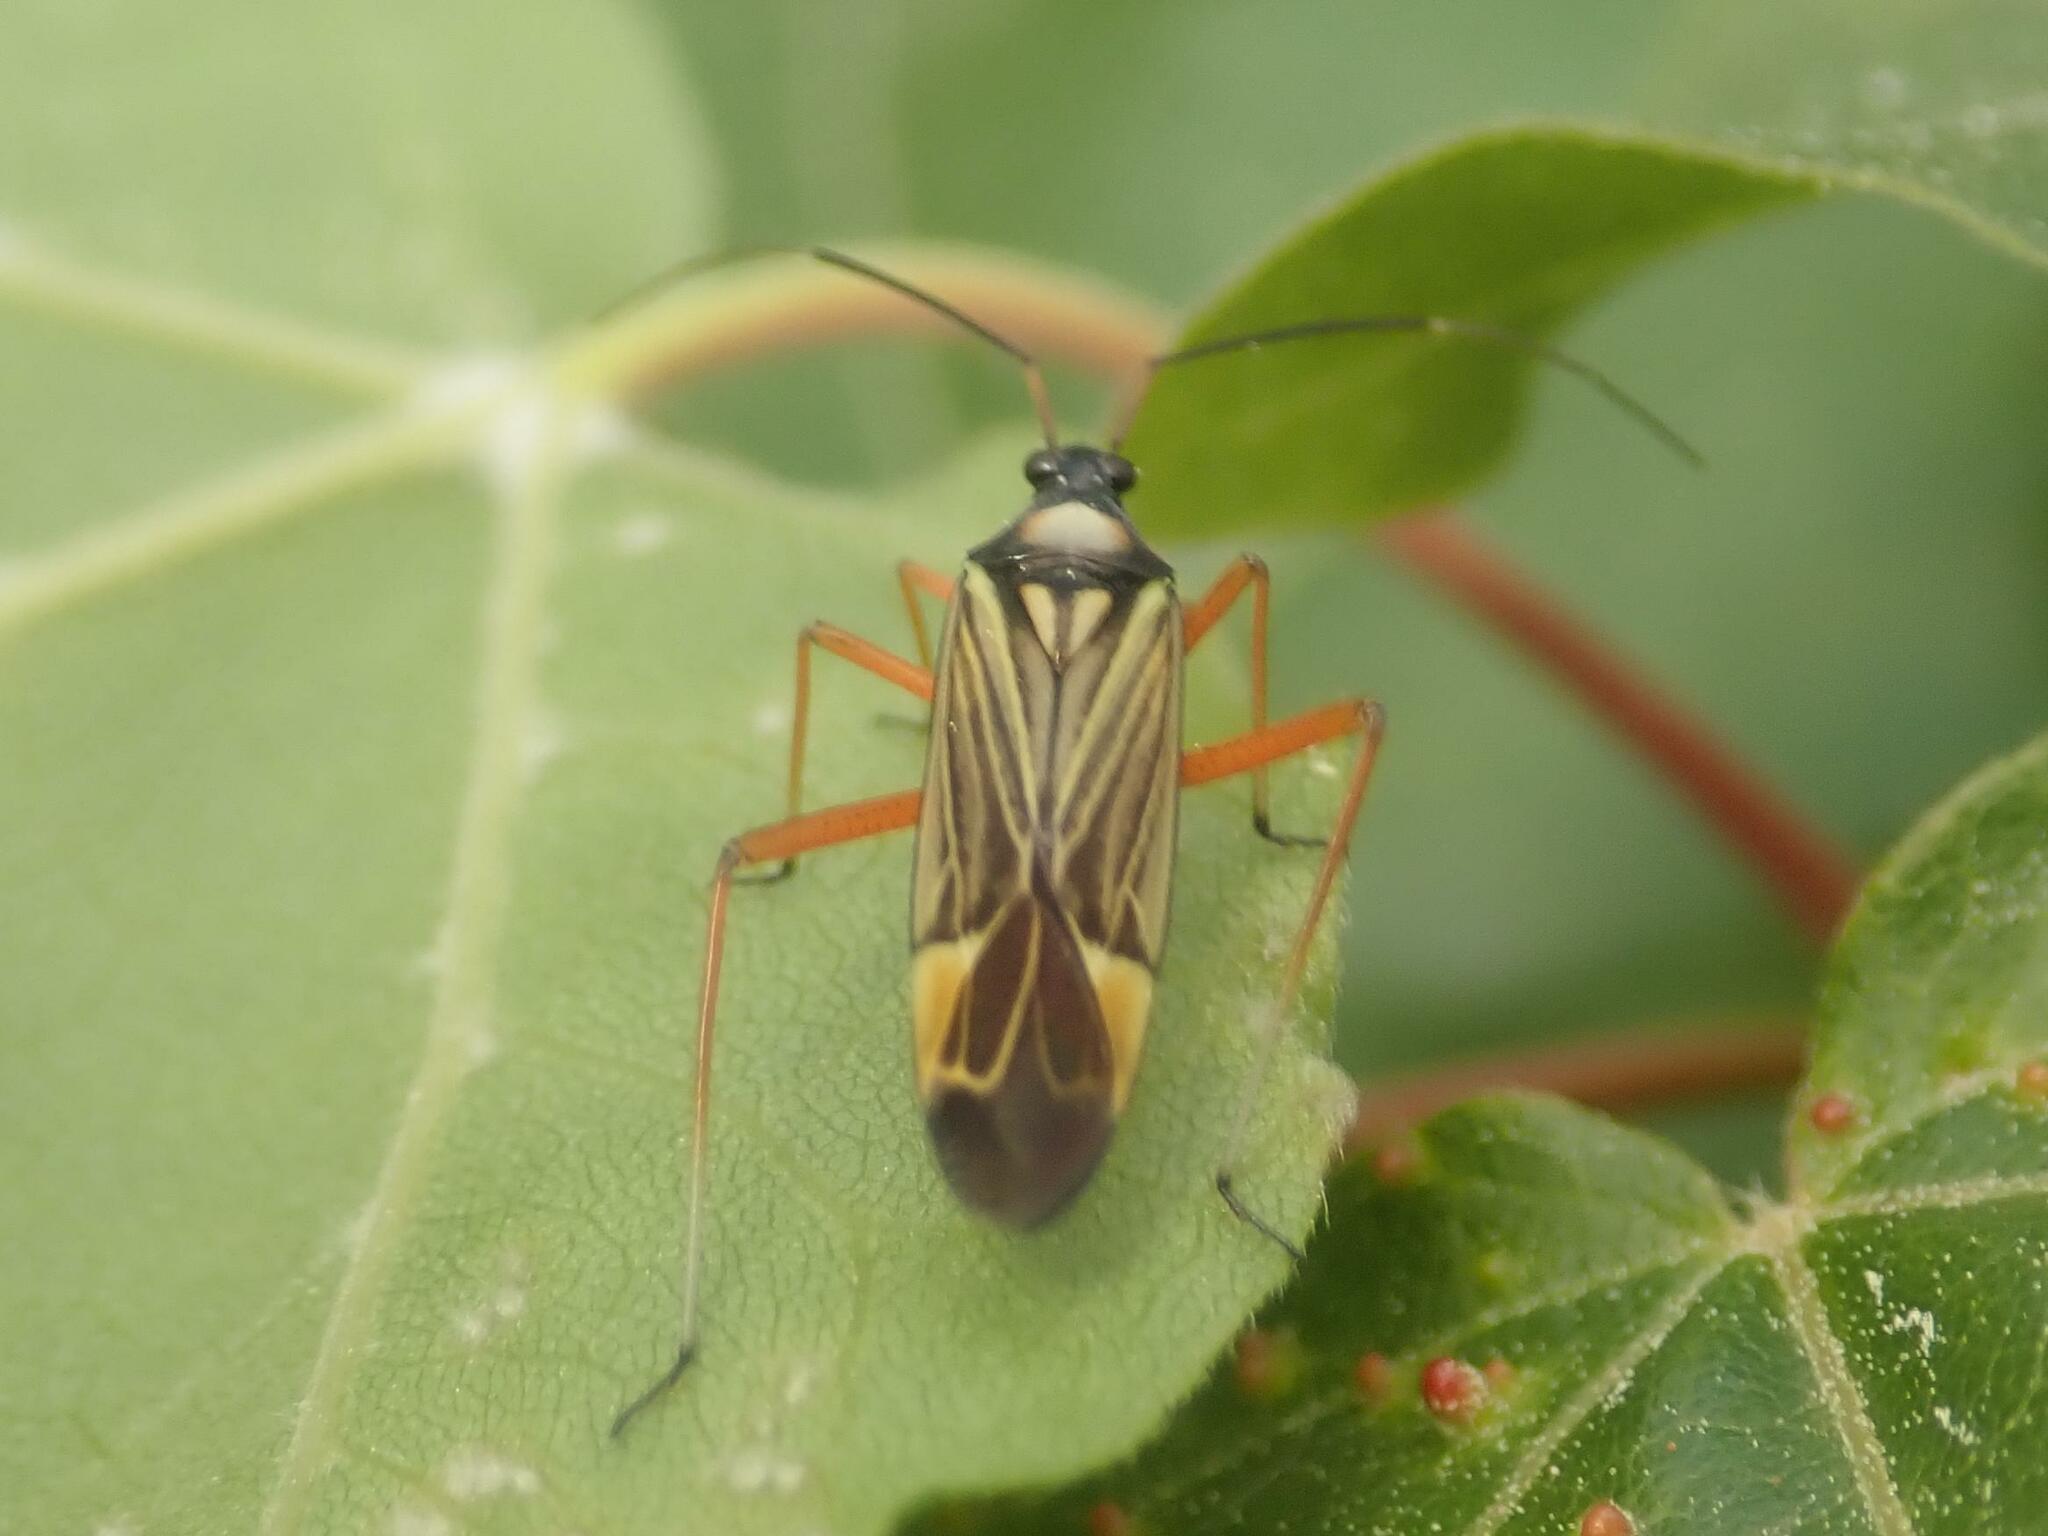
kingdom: Animalia
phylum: Arthropoda
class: Insecta
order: Hemiptera
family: Miridae
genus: Miris
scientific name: Miris striatus
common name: Fine streaked bugkin
